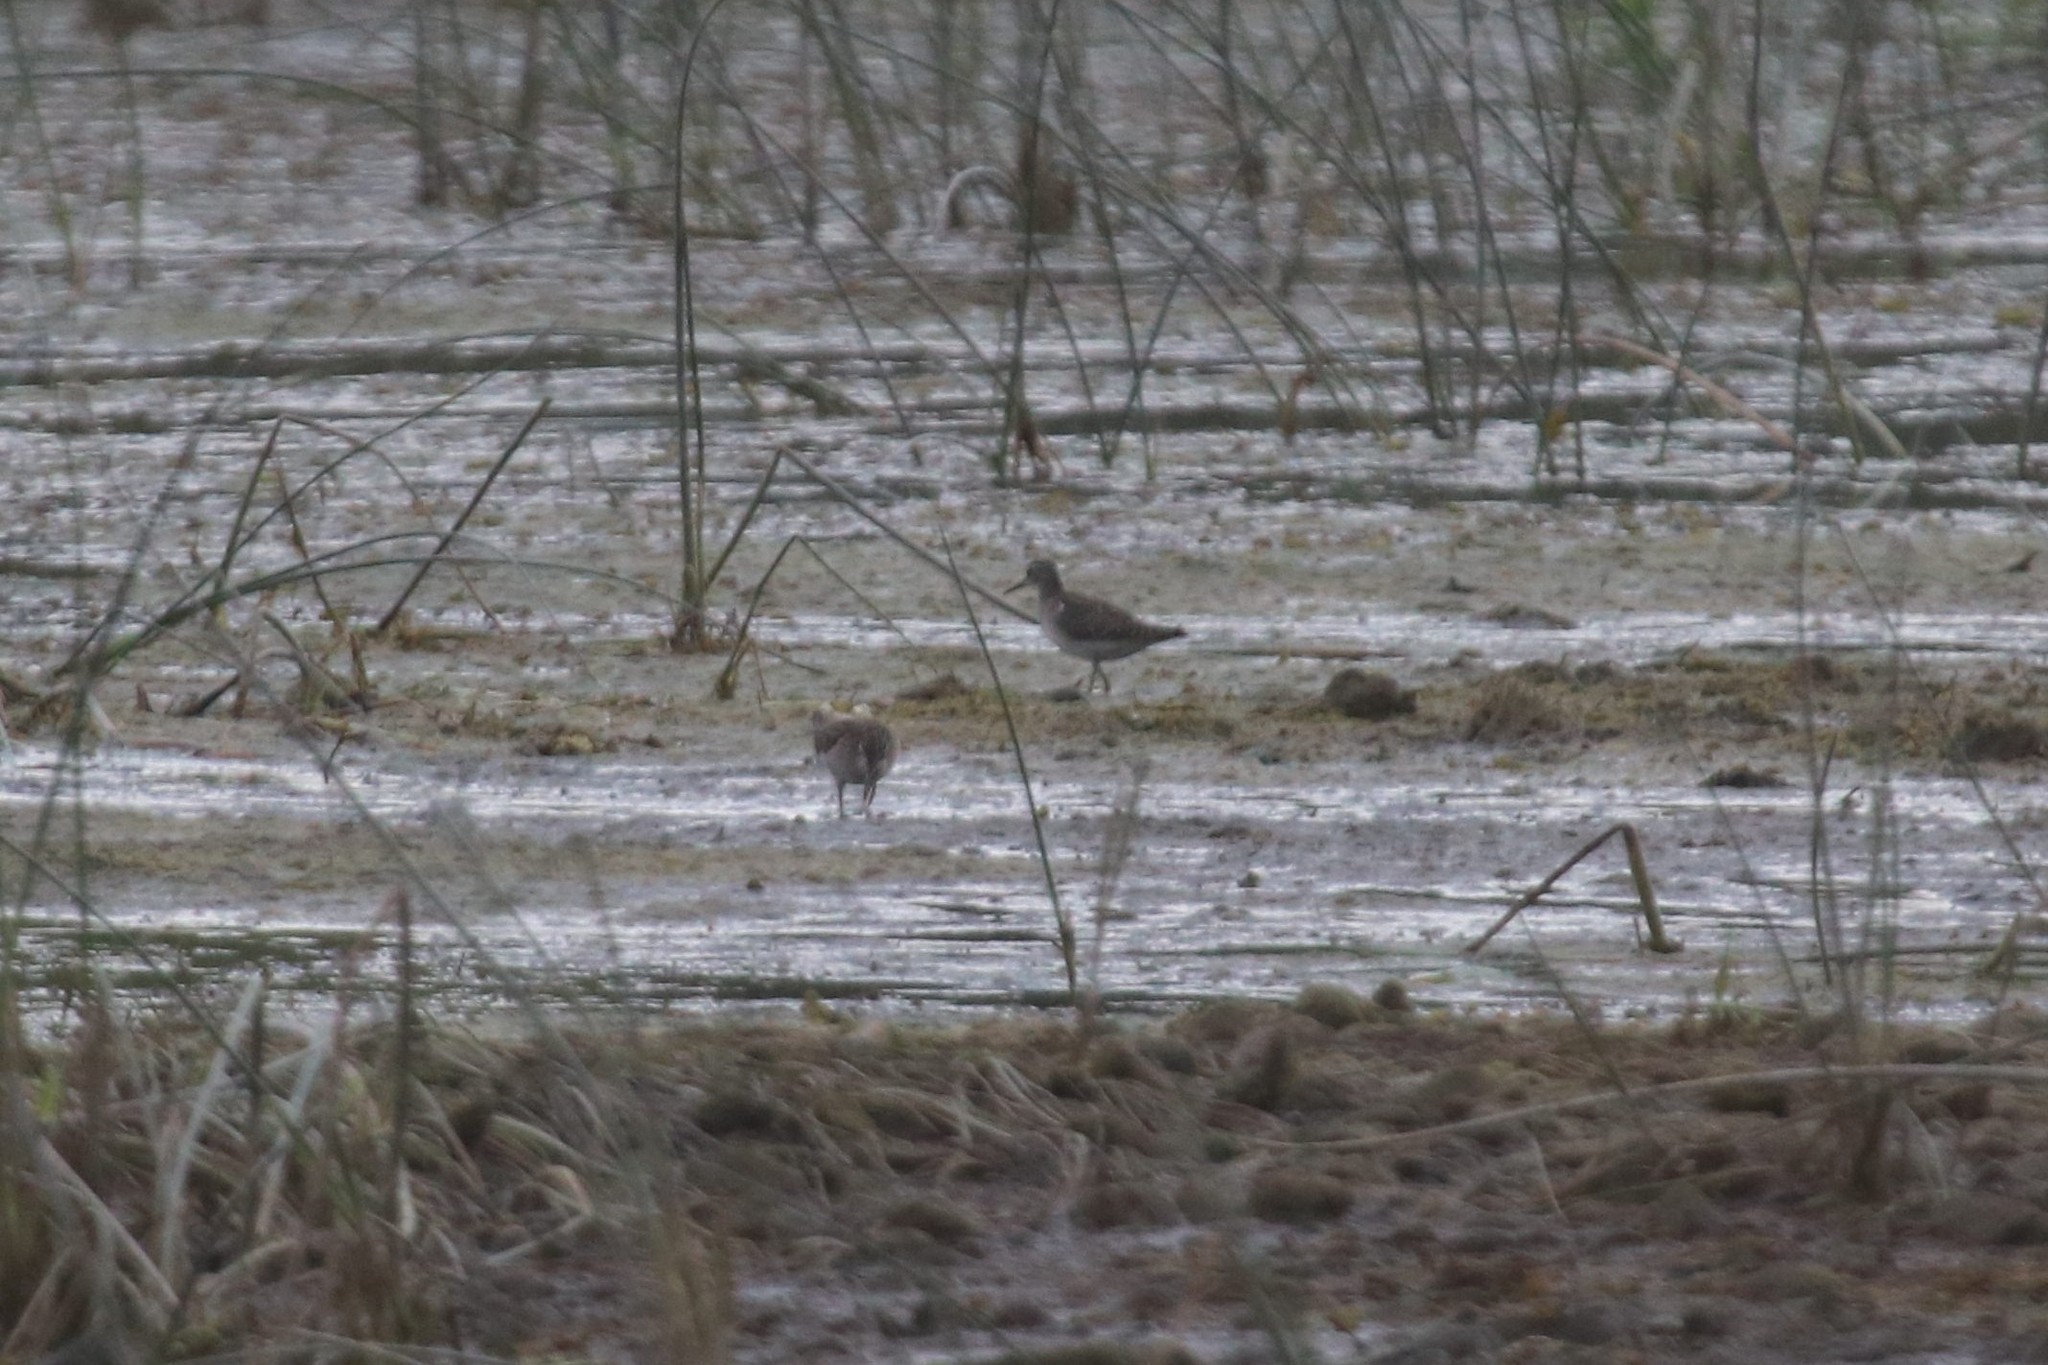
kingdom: Animalia
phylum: Chordata
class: Aves
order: Charadriiformes
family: Scolopacidae
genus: Tringa
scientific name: Tringa glareola
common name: Wood sandpiper
